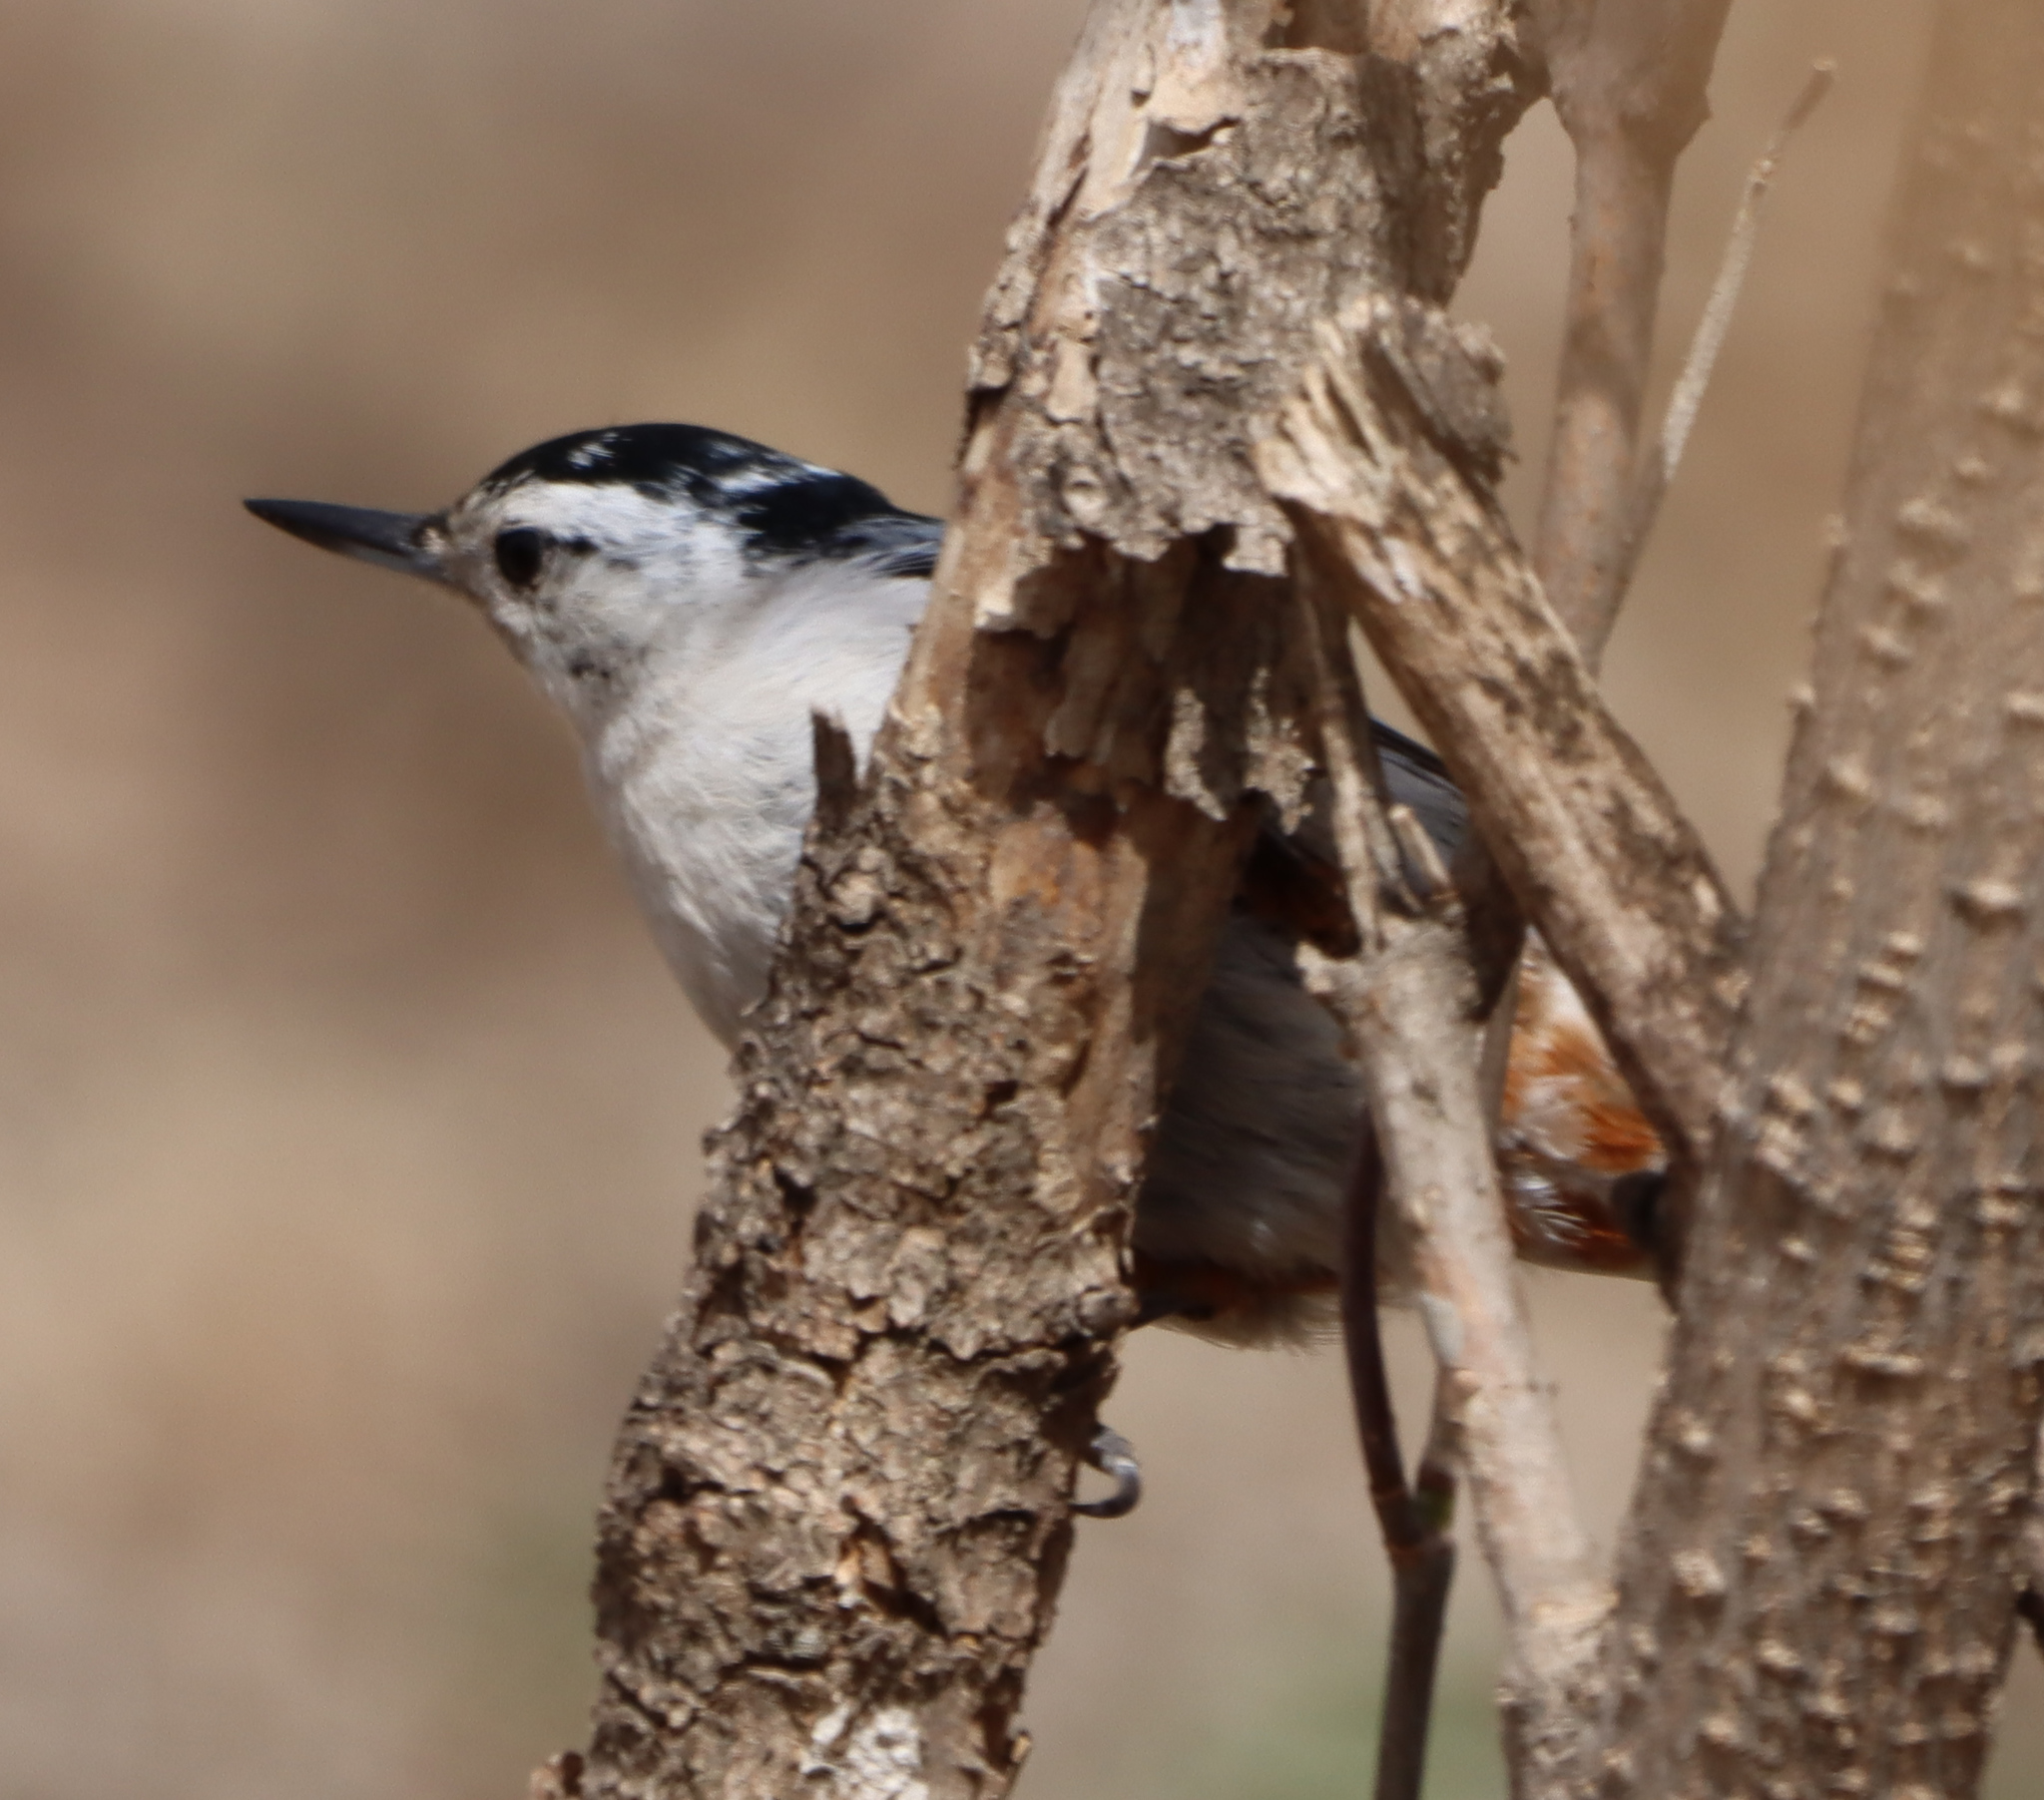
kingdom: Animalia
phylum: Chordata
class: Aves
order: Passeriformes
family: Sittidae
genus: Sitta
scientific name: Sitta carolinensis
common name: White-breasted nuthatch
